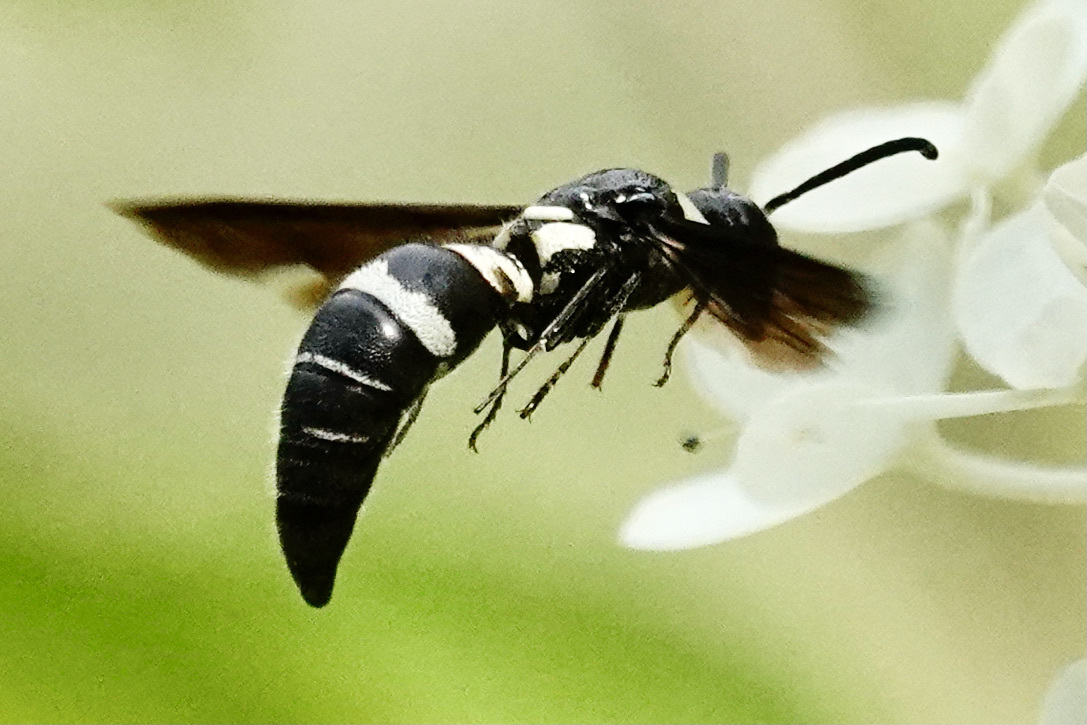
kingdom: Animalia
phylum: Arthropoda
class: Insecta
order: Hymenoptera
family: Eumenidae
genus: Pseudodynerus
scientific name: Pseudodynerus quadrisectus
